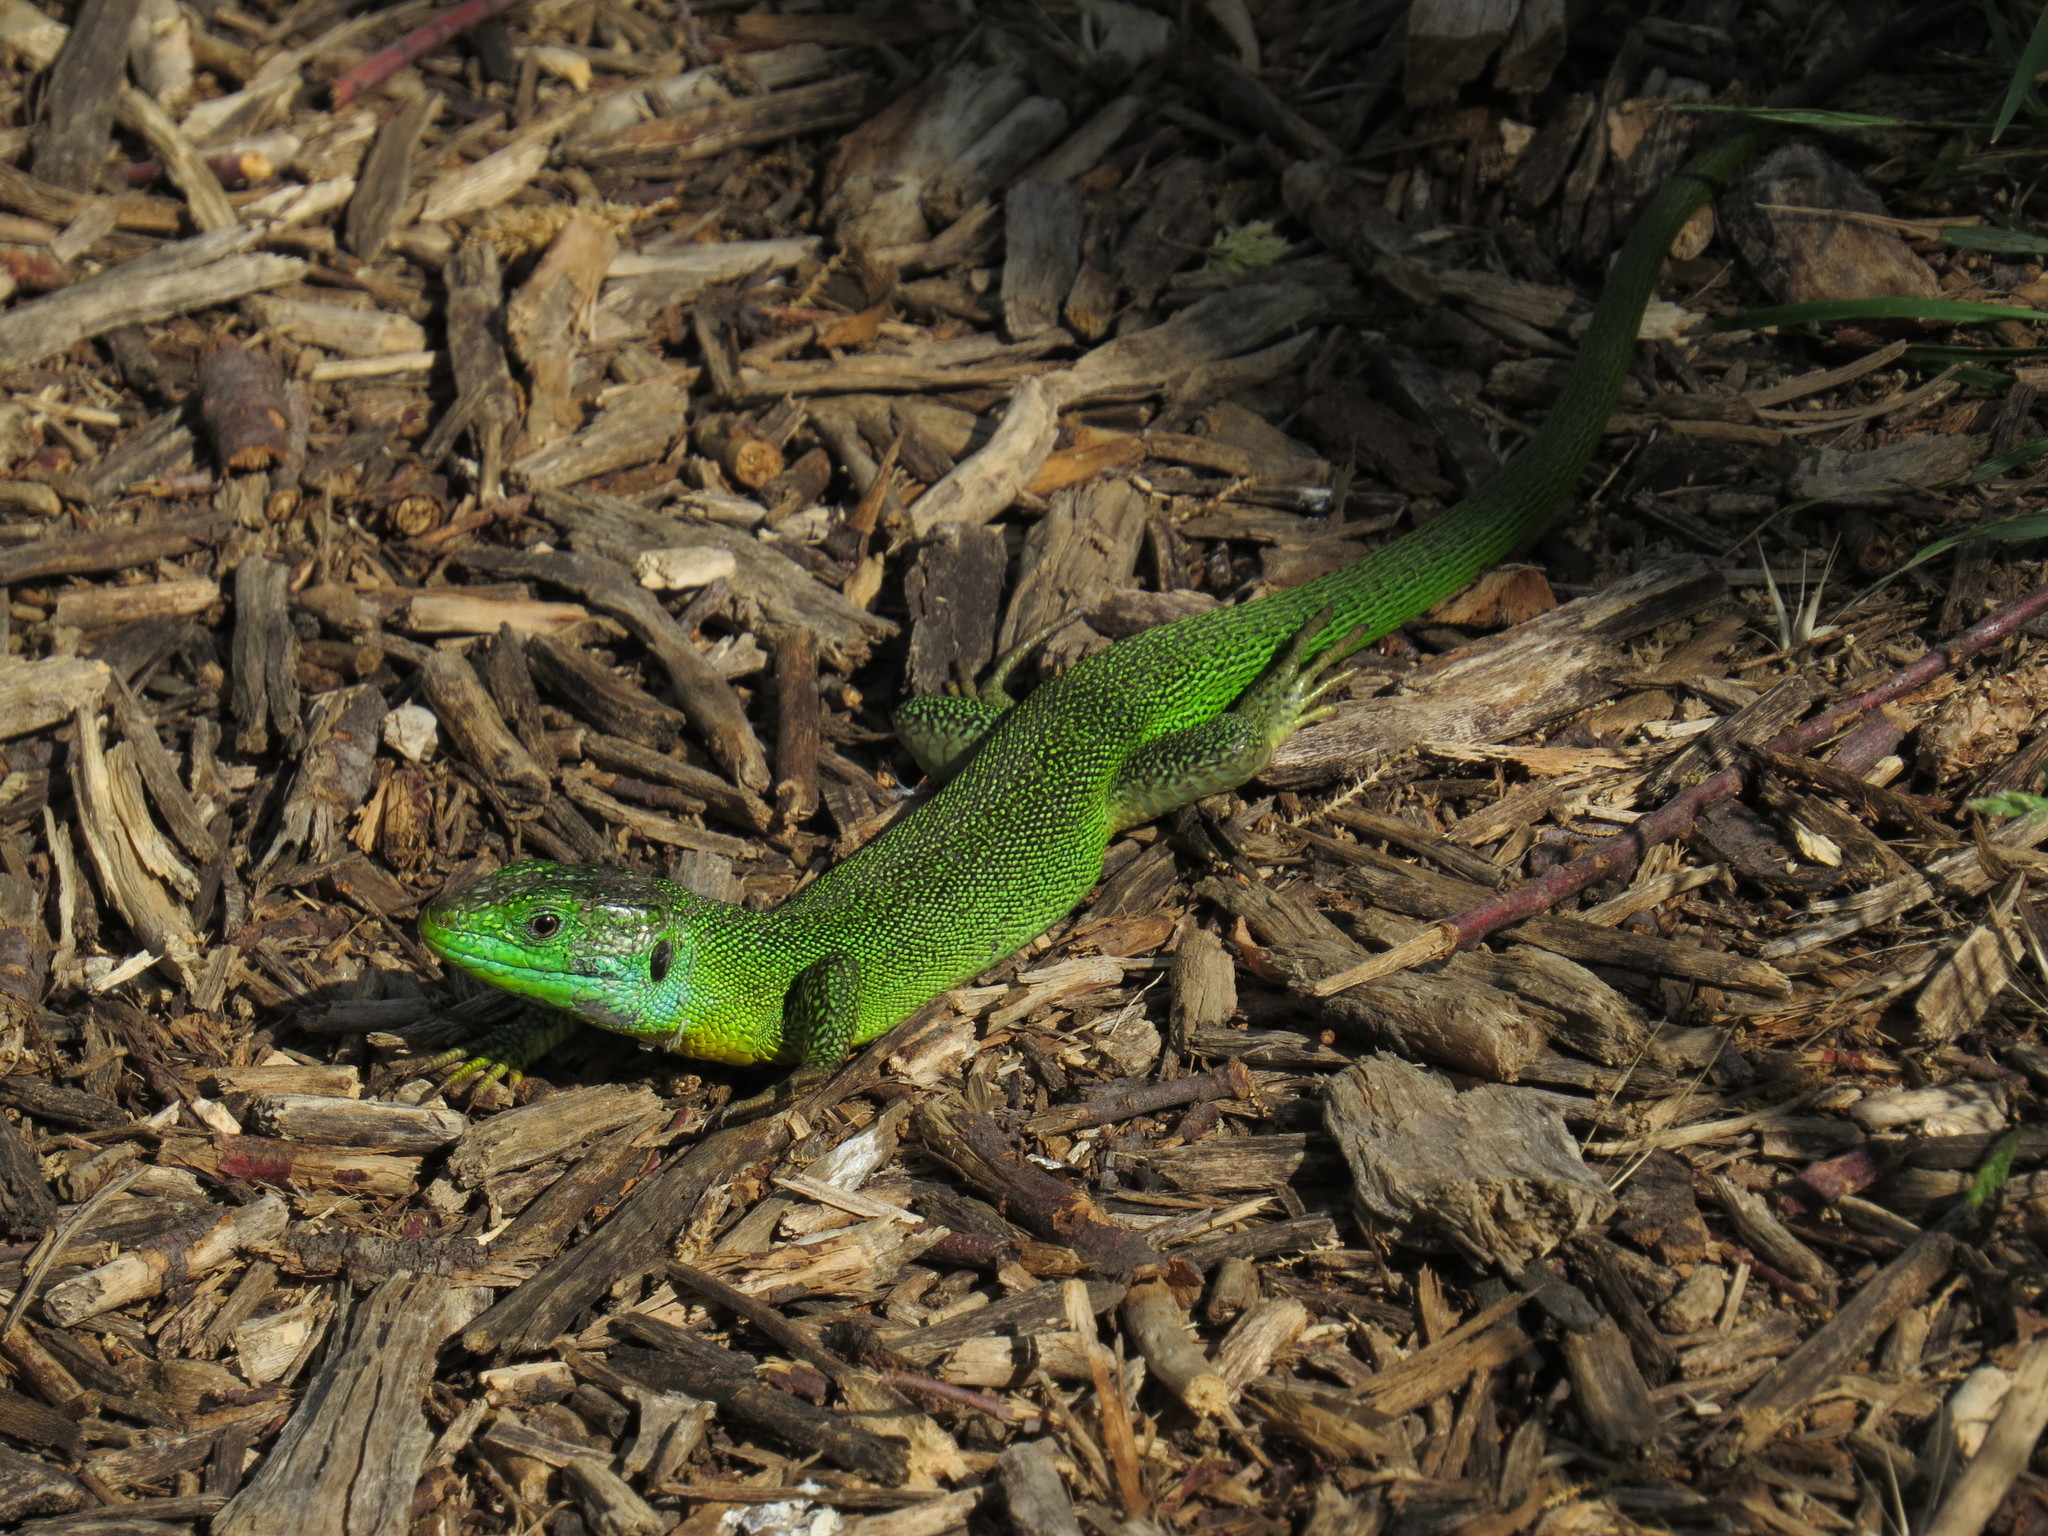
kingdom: Animalia
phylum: Chordata
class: Squamata
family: Lacertidae
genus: Lacerta
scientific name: Lacerta bilineata
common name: Western green lizard
